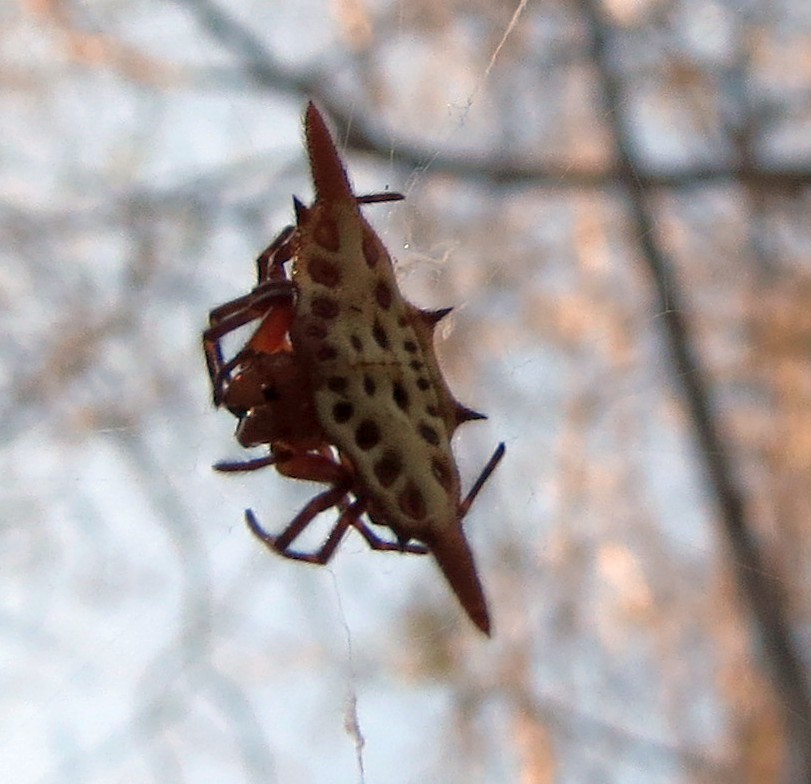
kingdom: Animalia
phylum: Arthropoda
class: Arachnida
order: Araneae
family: Araneidae
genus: Gasteracantha
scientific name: Gasteracantha sanguinolenta
